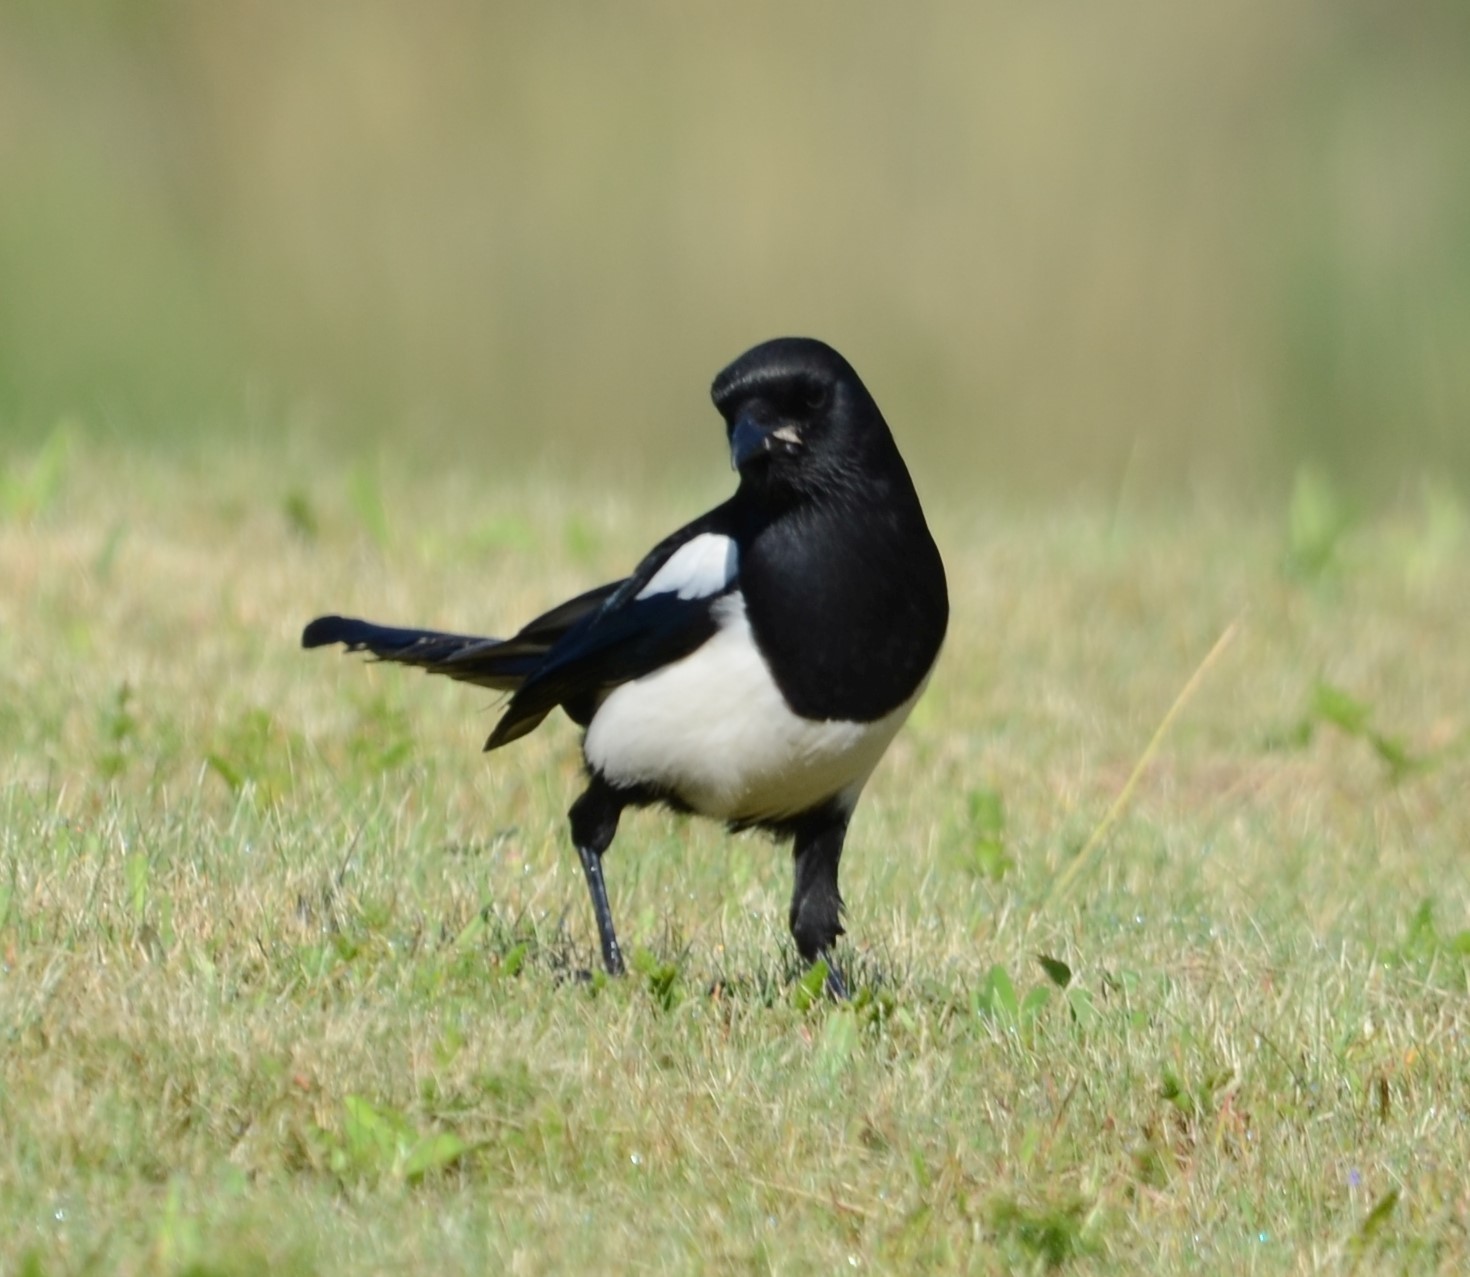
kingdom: Animalia
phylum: Chordata
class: Aves
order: Passeriformes
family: Corvidae
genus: Pica
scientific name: Pica pica
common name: Eurasian magpie
